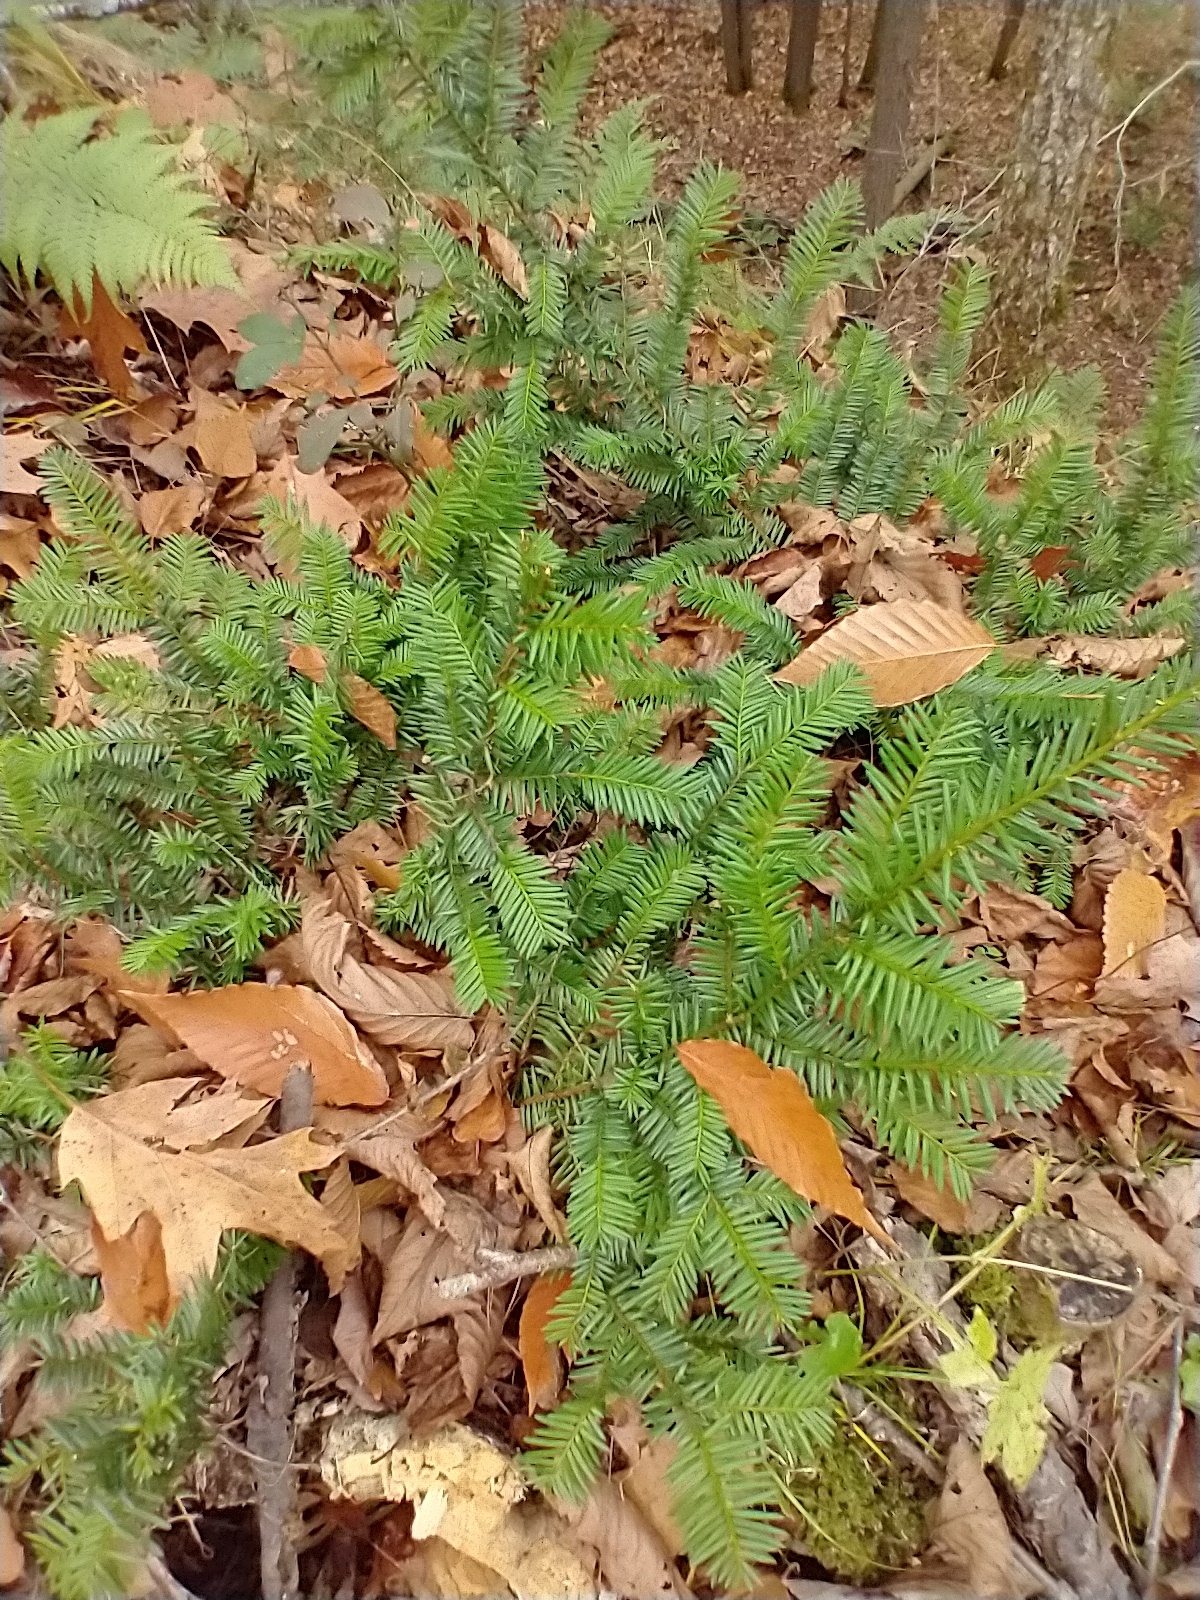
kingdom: Plantae
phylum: Tracheophyta
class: Pinopsida
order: Pinales
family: Taxaceae
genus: Taxus
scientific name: Taxus canadensis
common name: American yew
